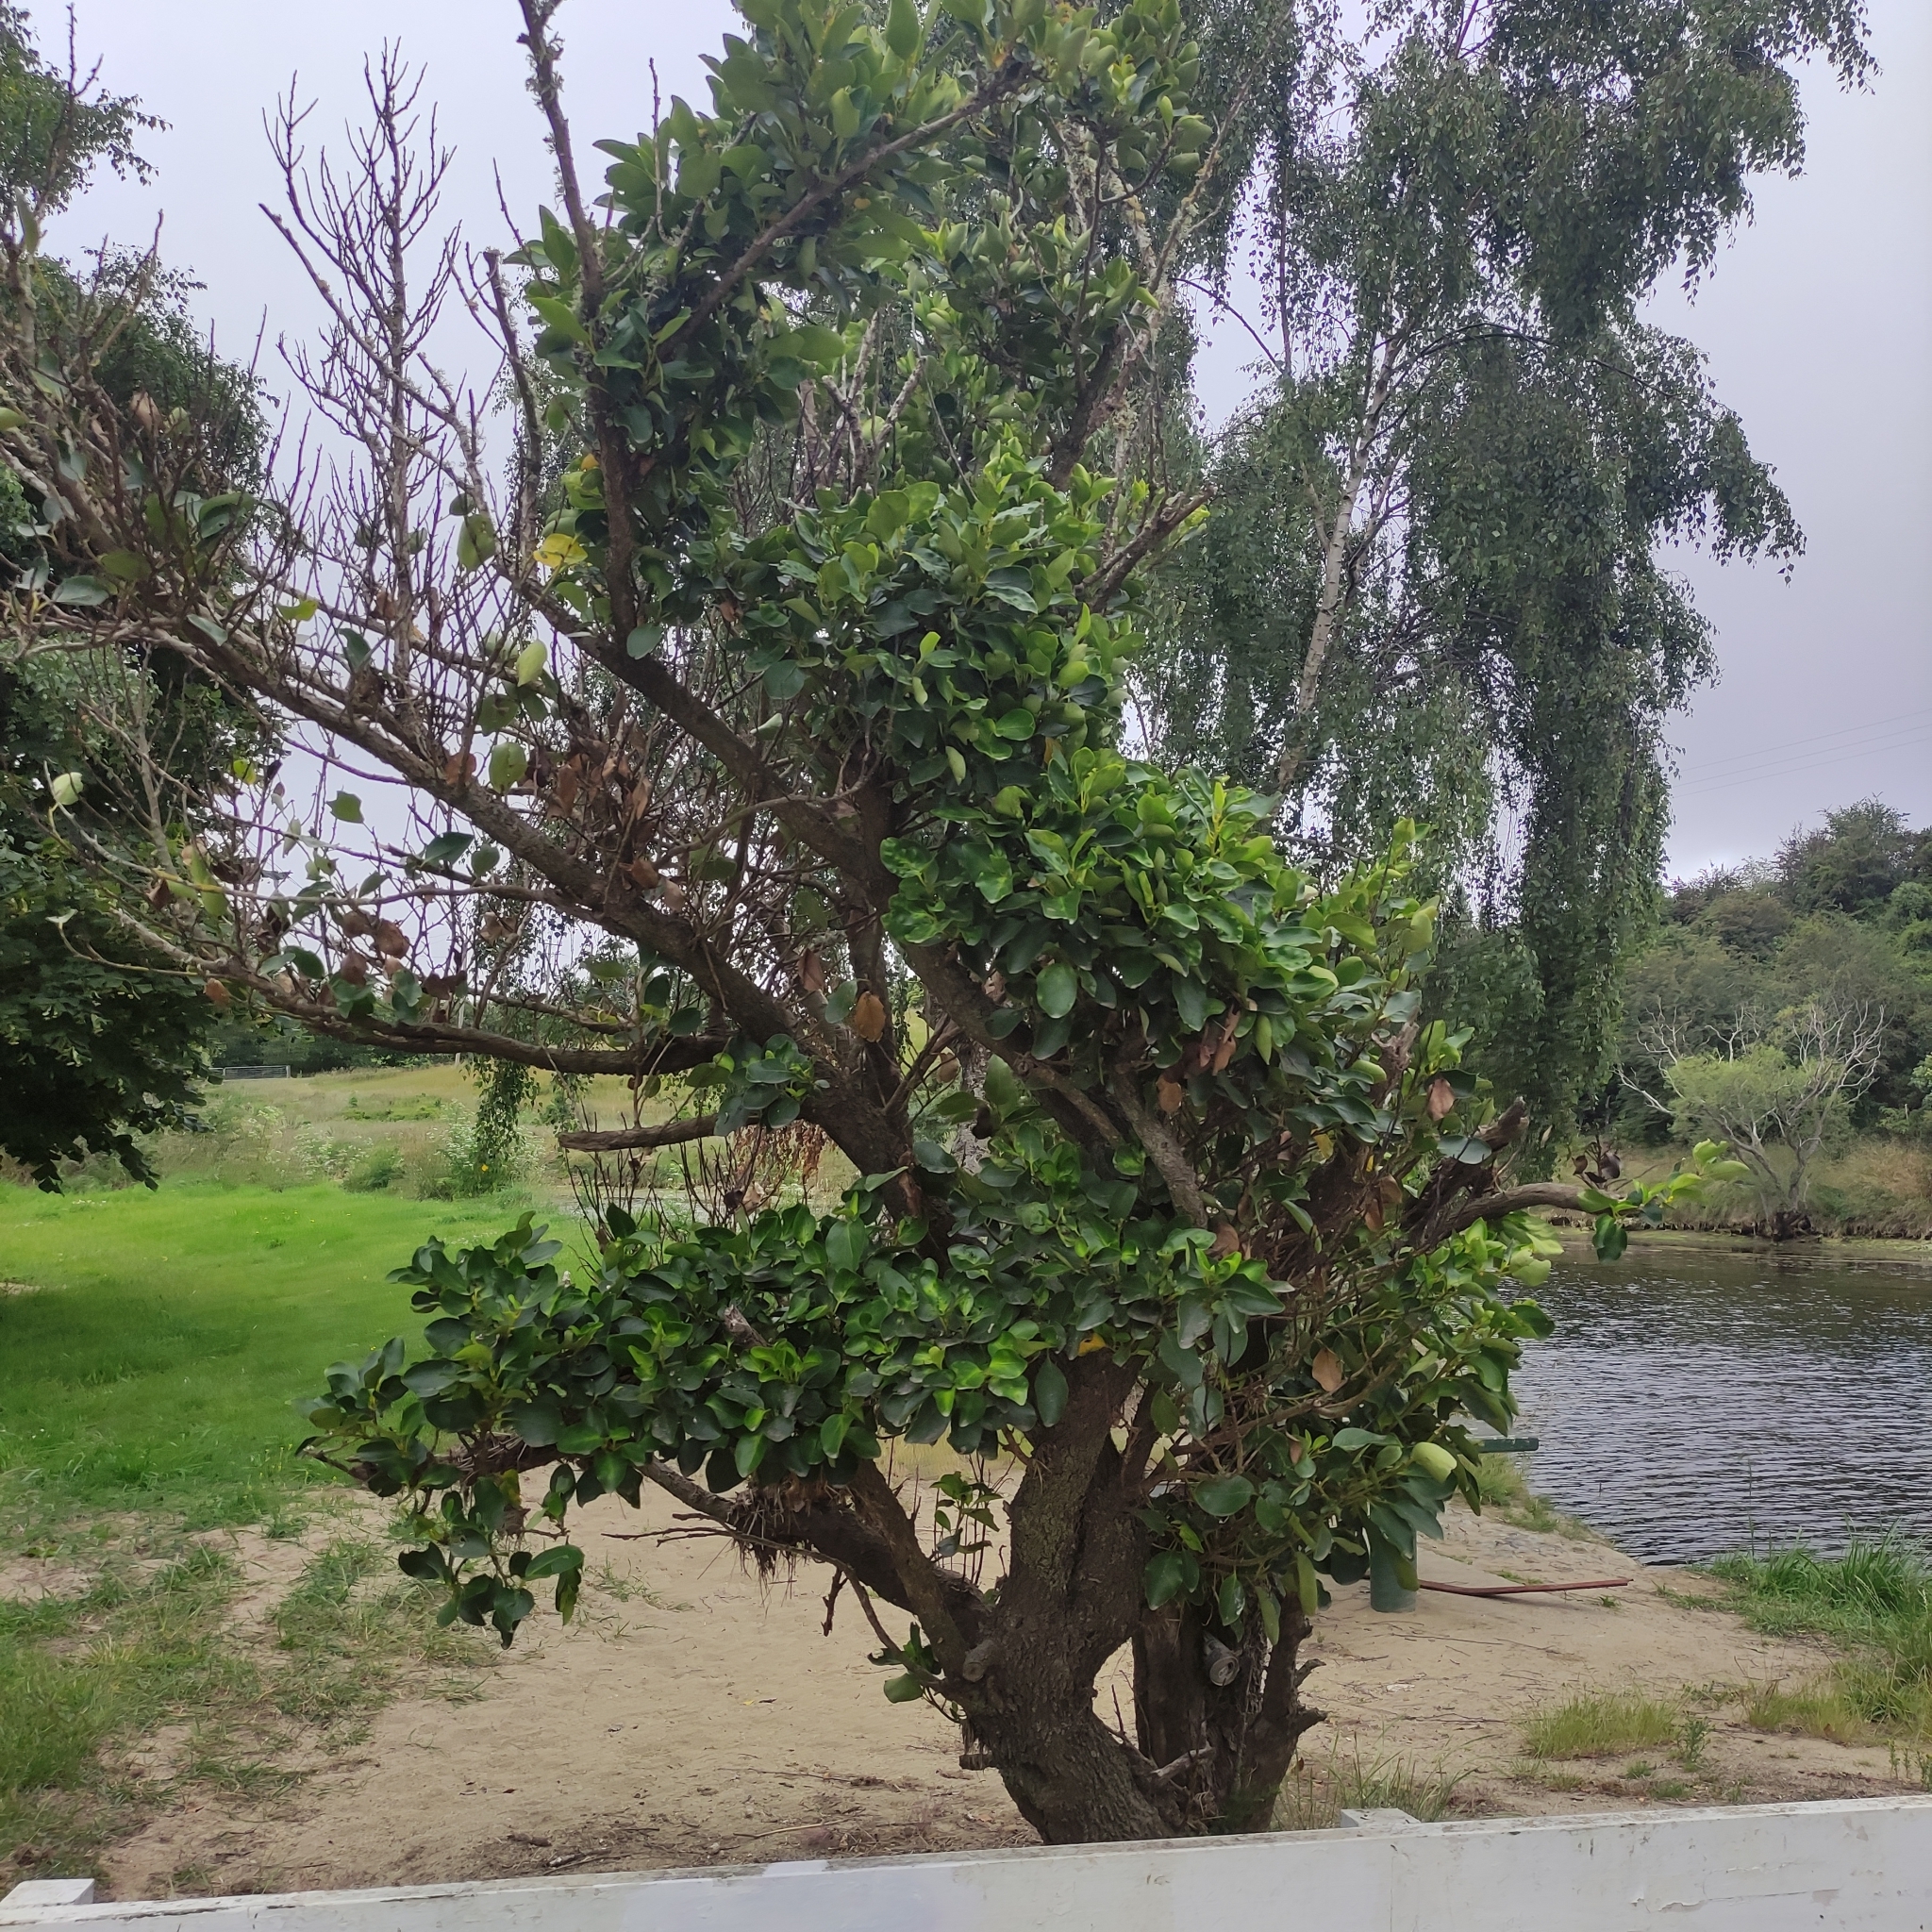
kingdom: Plantae
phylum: Tracheophyta
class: Magnoliopsida
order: Apiales
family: Griseliniaceae
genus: Griselinia
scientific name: Griselinia littoralis
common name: New zealand broadleaf
